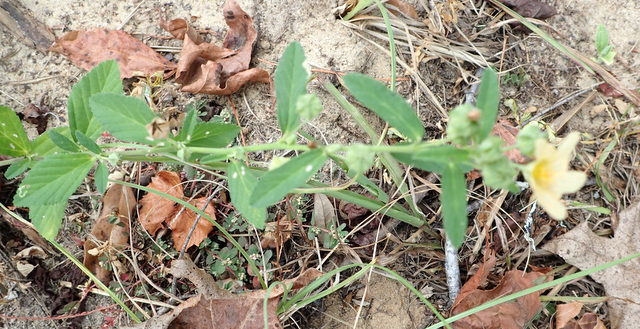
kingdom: Plantae
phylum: Tracheophyta
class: Magnoliopsida
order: Malvales
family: Malvaceae
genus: Sida
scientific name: Sida rhombifolia
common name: Queensland-hemp
